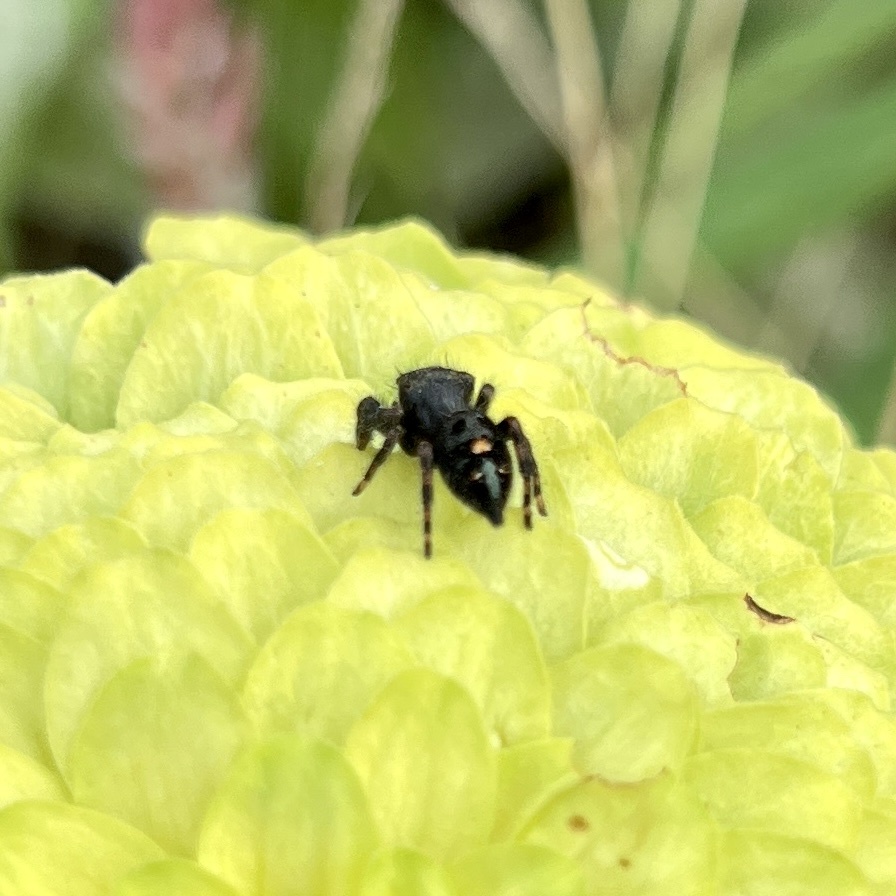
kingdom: Animalia
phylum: Arthropoda
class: Arachnida
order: Araneae
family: Salticidae
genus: Phidippus
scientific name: Phidippus audax
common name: Bold jumper
